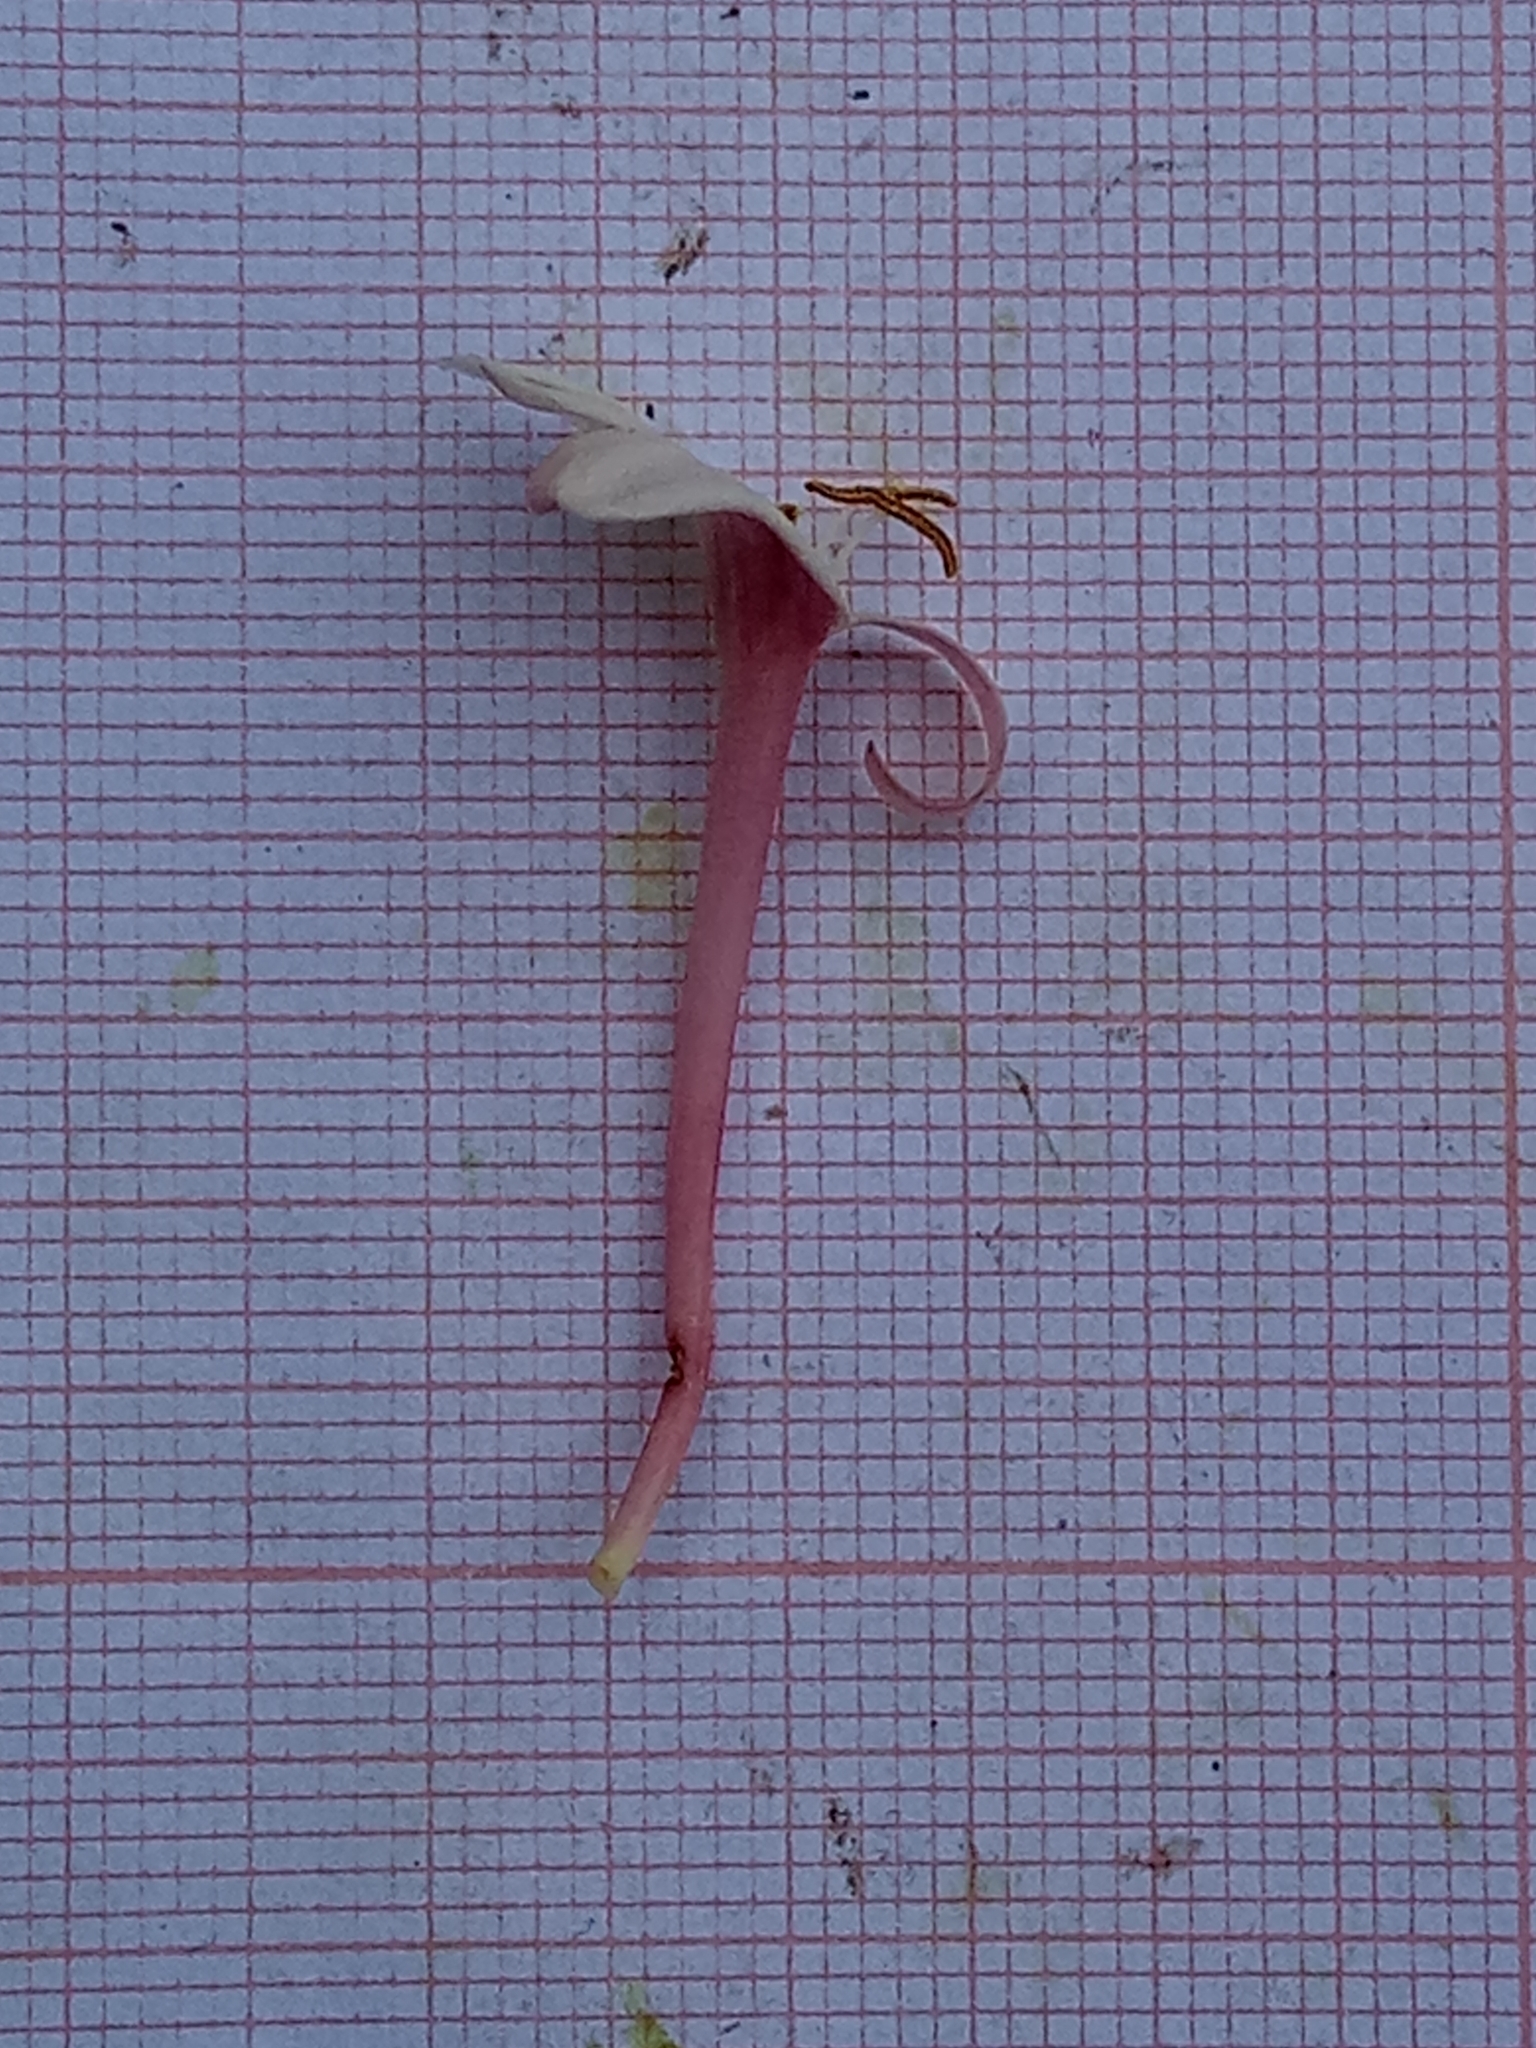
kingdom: Plantae
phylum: Tracheophyta
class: Magnoliopsida
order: Dipsacales
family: Caprifoliaceae
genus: Lonicera
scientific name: Lonicera implexa
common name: Minorca honeysuckle
